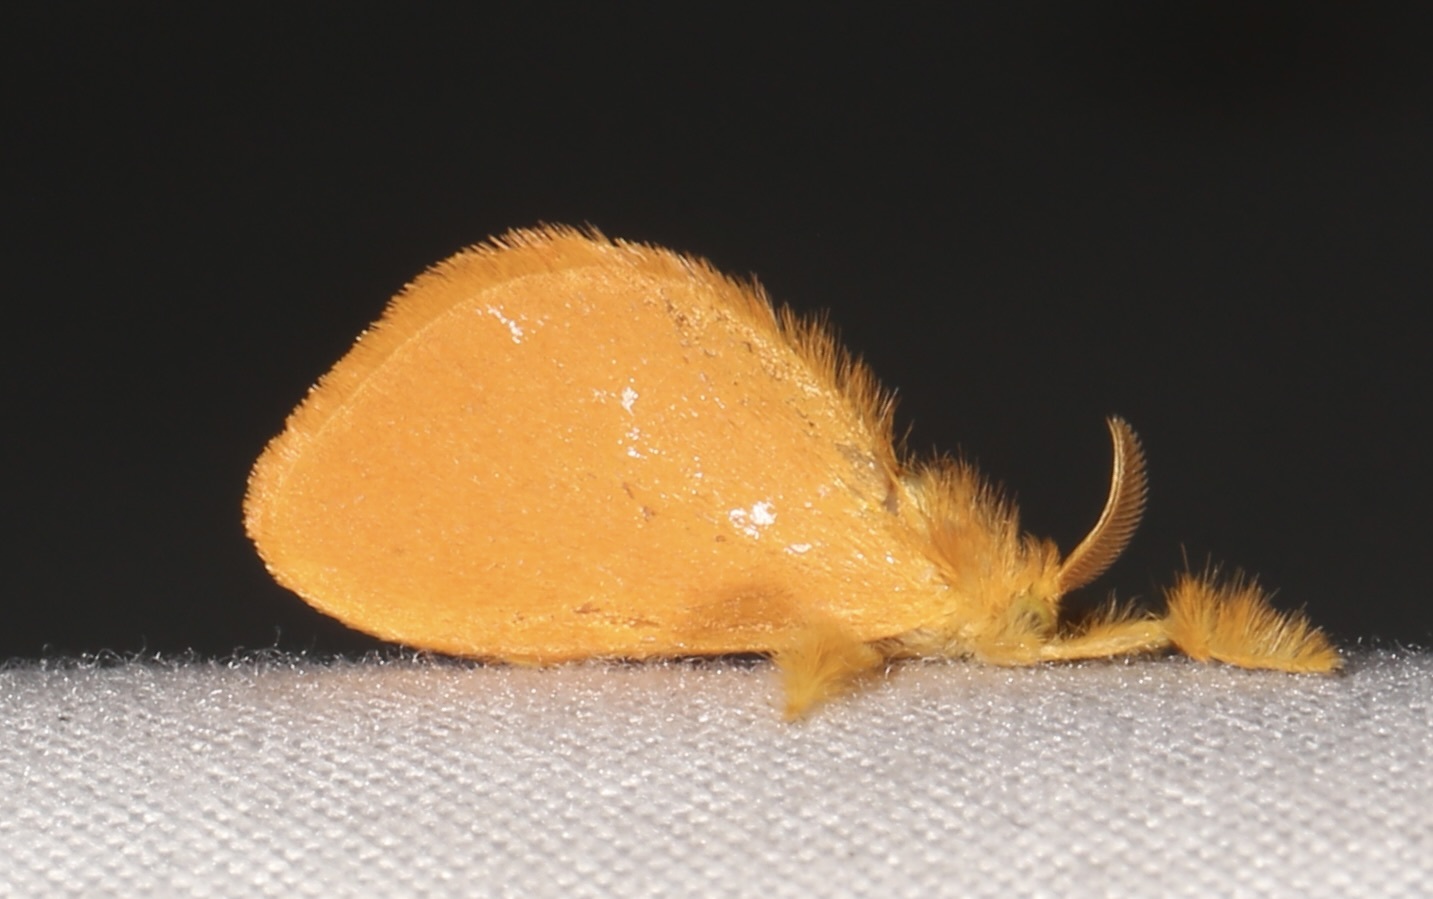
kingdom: Animalia
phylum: Arthropoda
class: Insecta
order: Lepidoptera
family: Dalceridae
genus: Dalcerides
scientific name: Dalcerides ingenita
